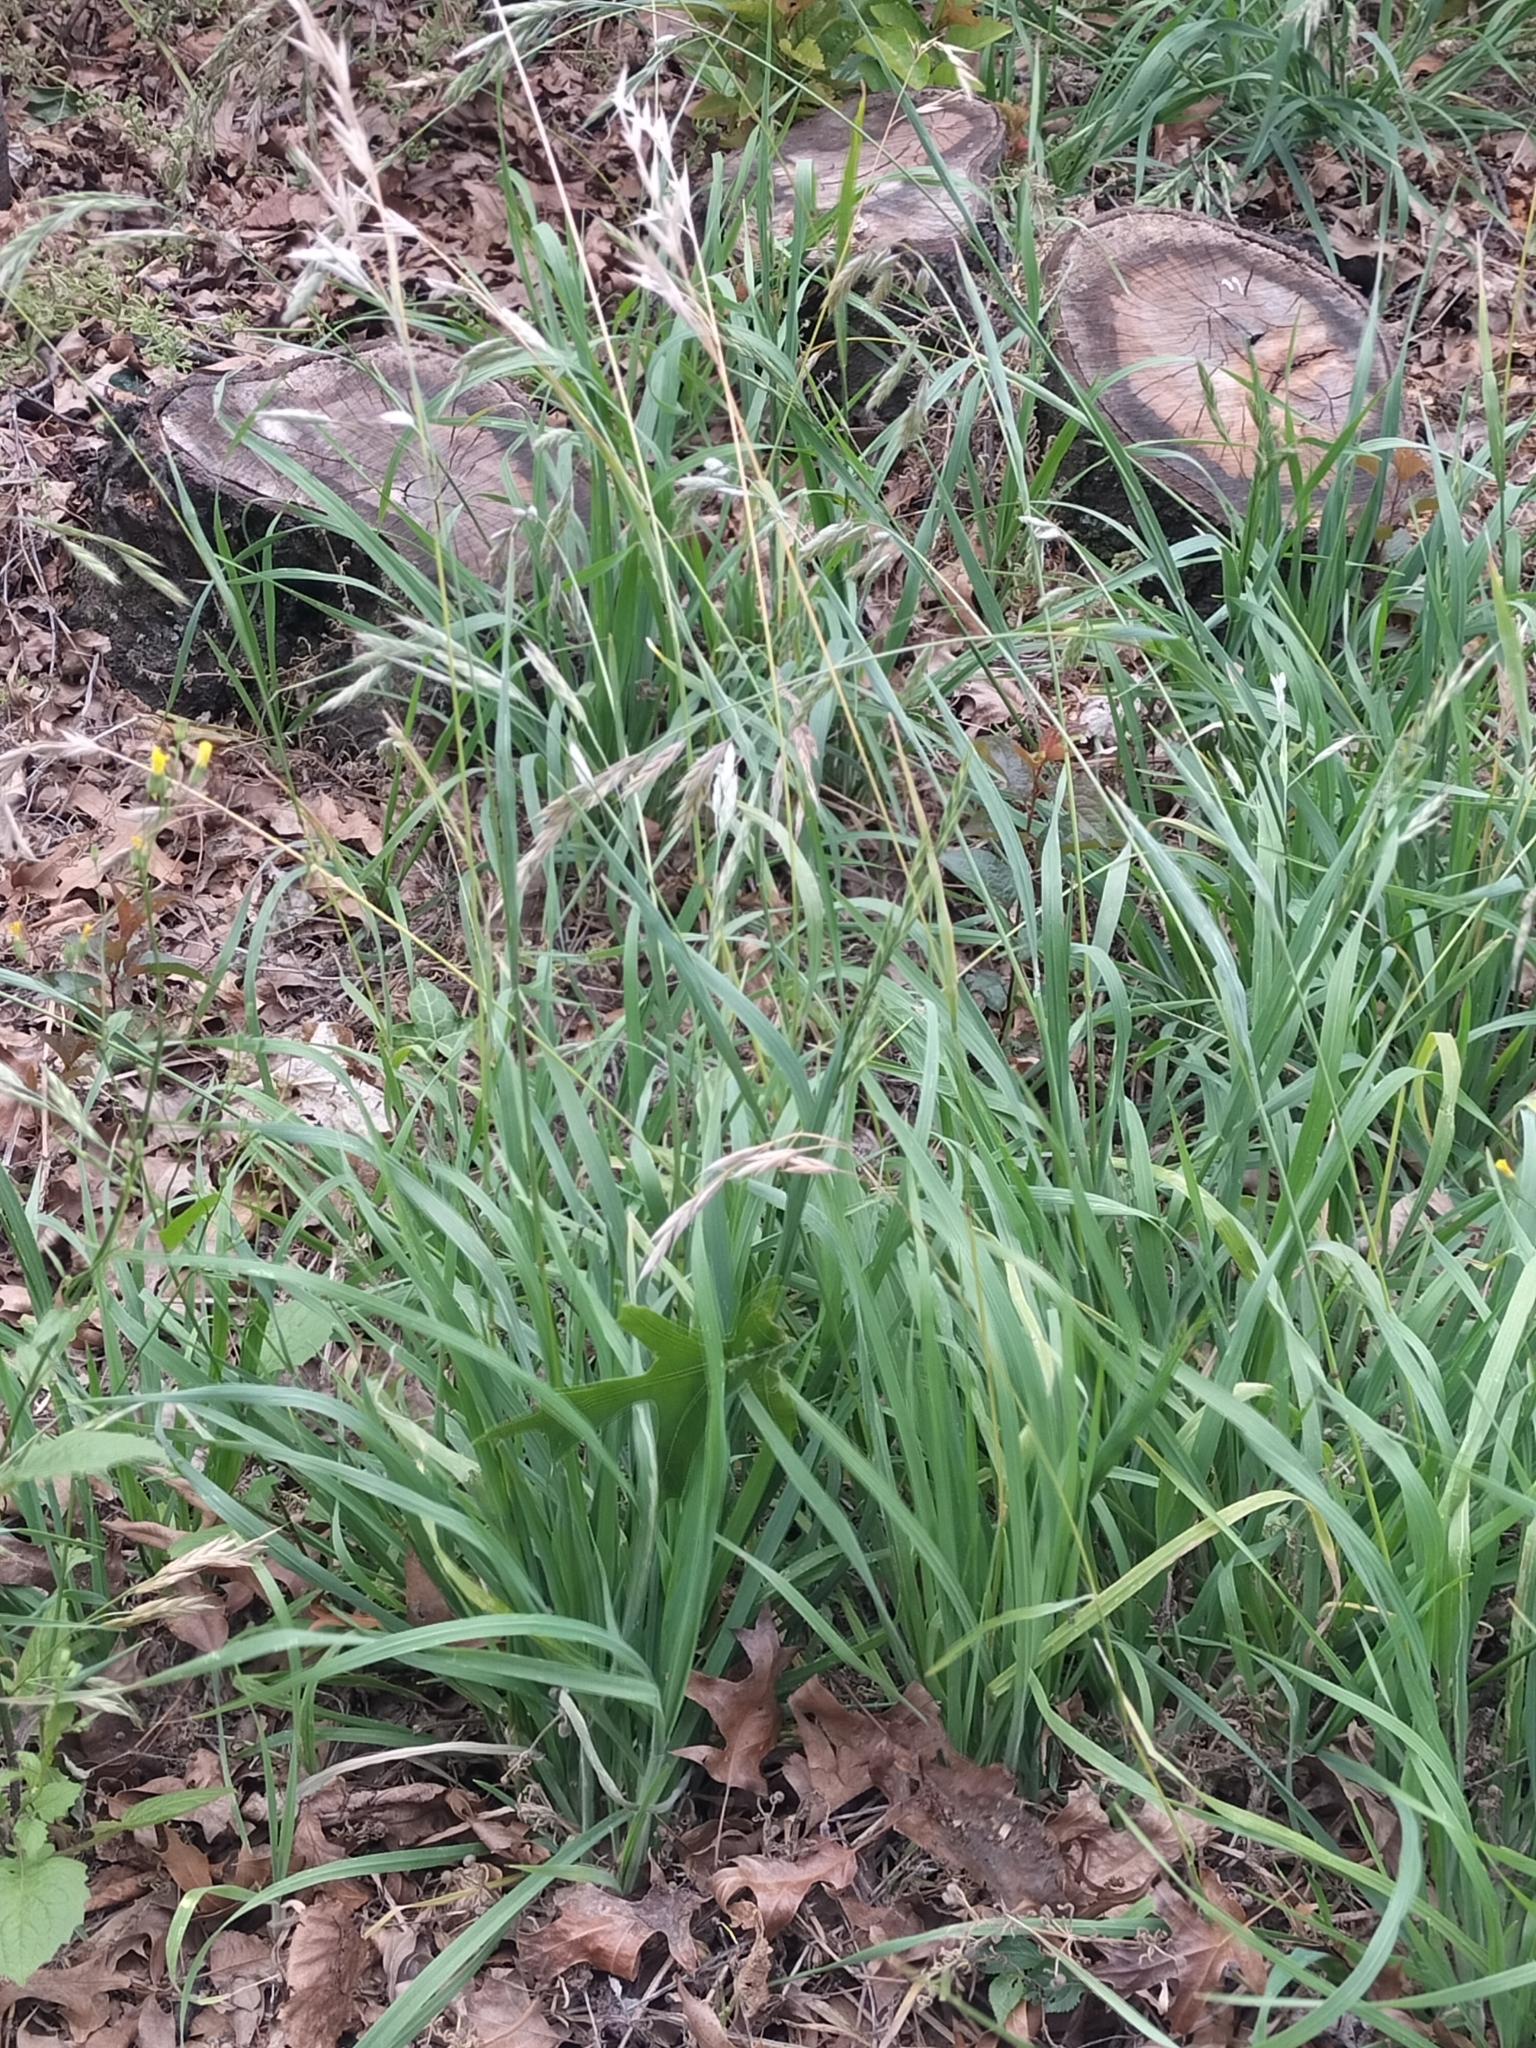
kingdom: Plantae
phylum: Tracheophyta
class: Liliopsida
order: Poales
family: Poaceae
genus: Bromus
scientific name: Bromus catharticus
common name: Rescuegrass
